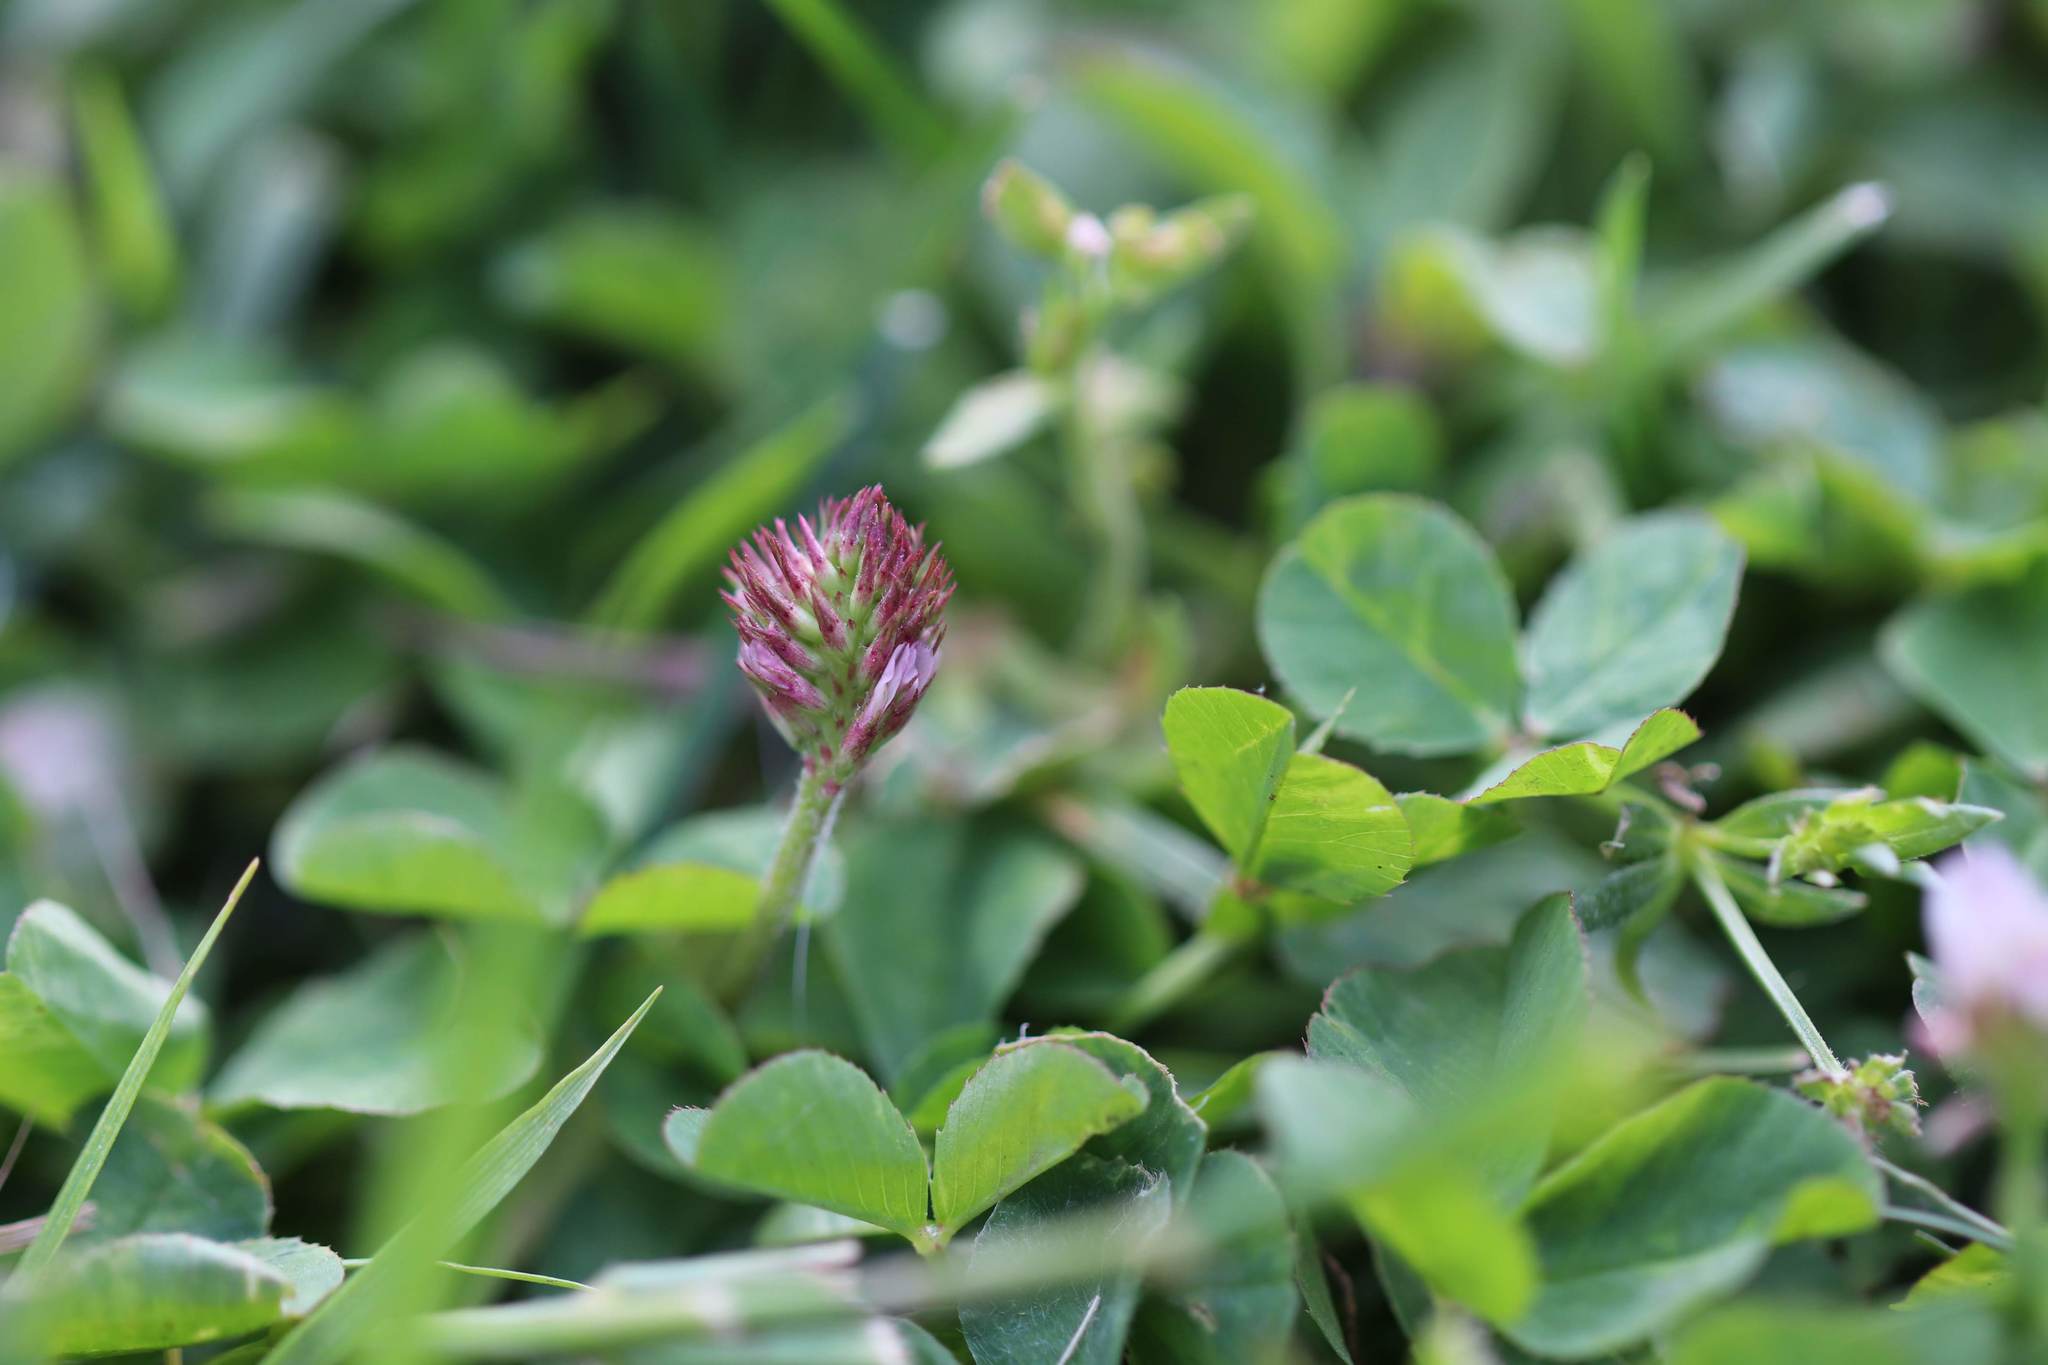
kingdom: Plantae
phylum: Tracheophyta
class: Magnoliopsida
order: Fabales
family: Fabaceae
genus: Trifolium
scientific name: Trifolium repens
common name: White clover
